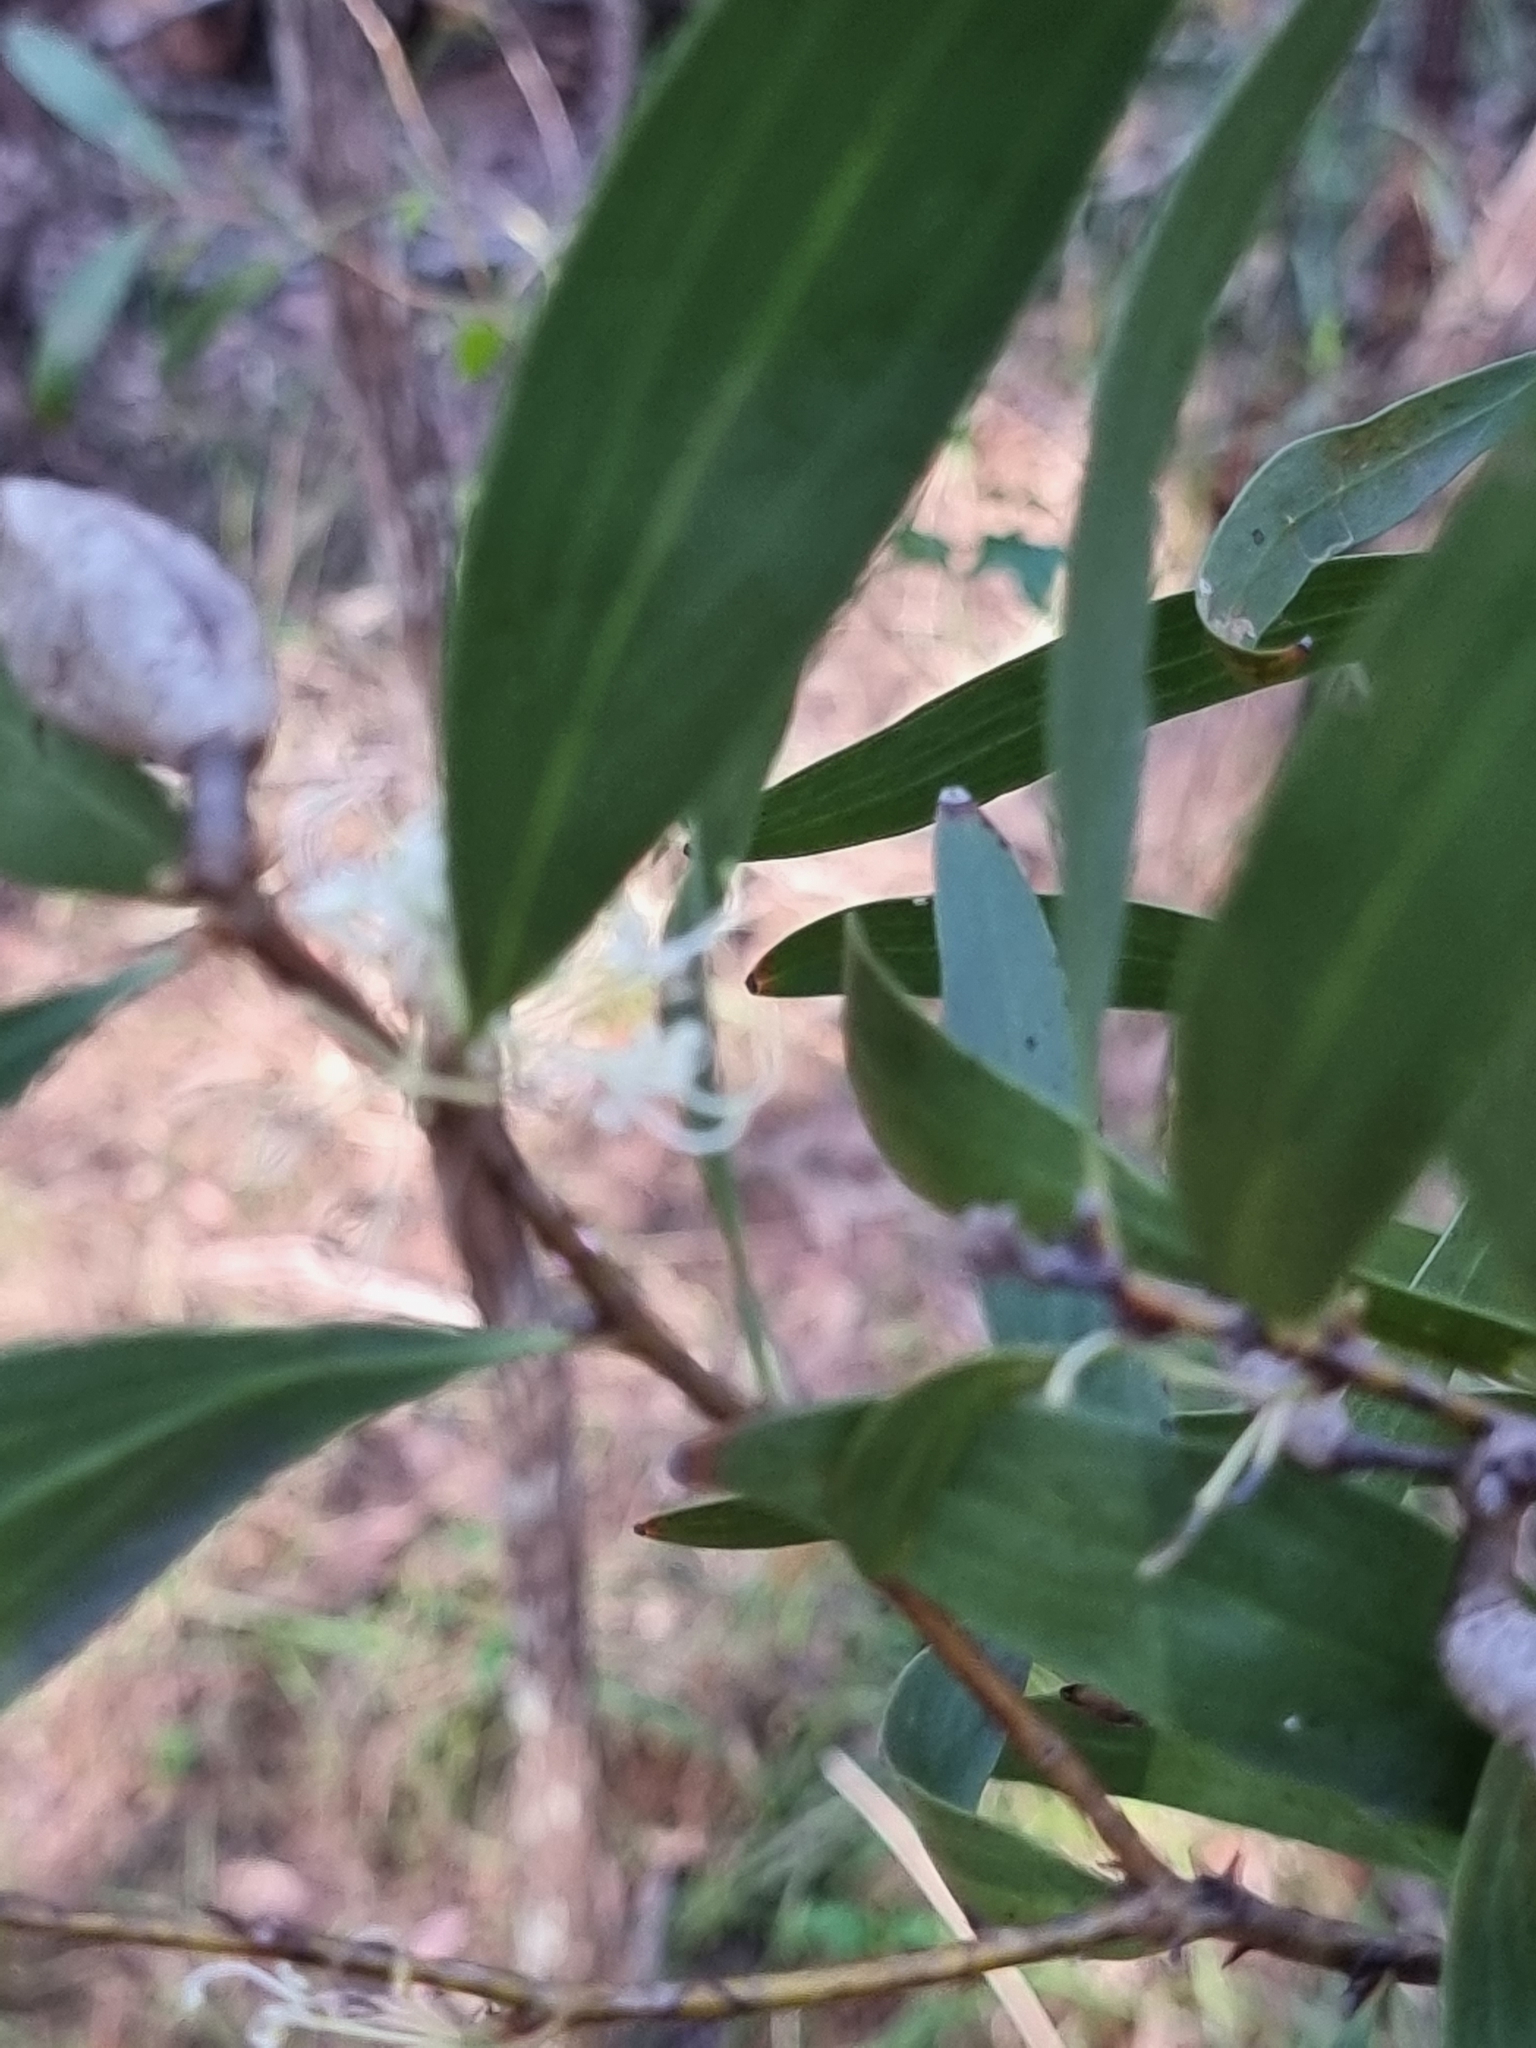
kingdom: Plantae
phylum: Tracheophyta
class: Magnoliopsida
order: Proteales
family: Proteaceae
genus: Hakea
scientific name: Hakea florulenta
